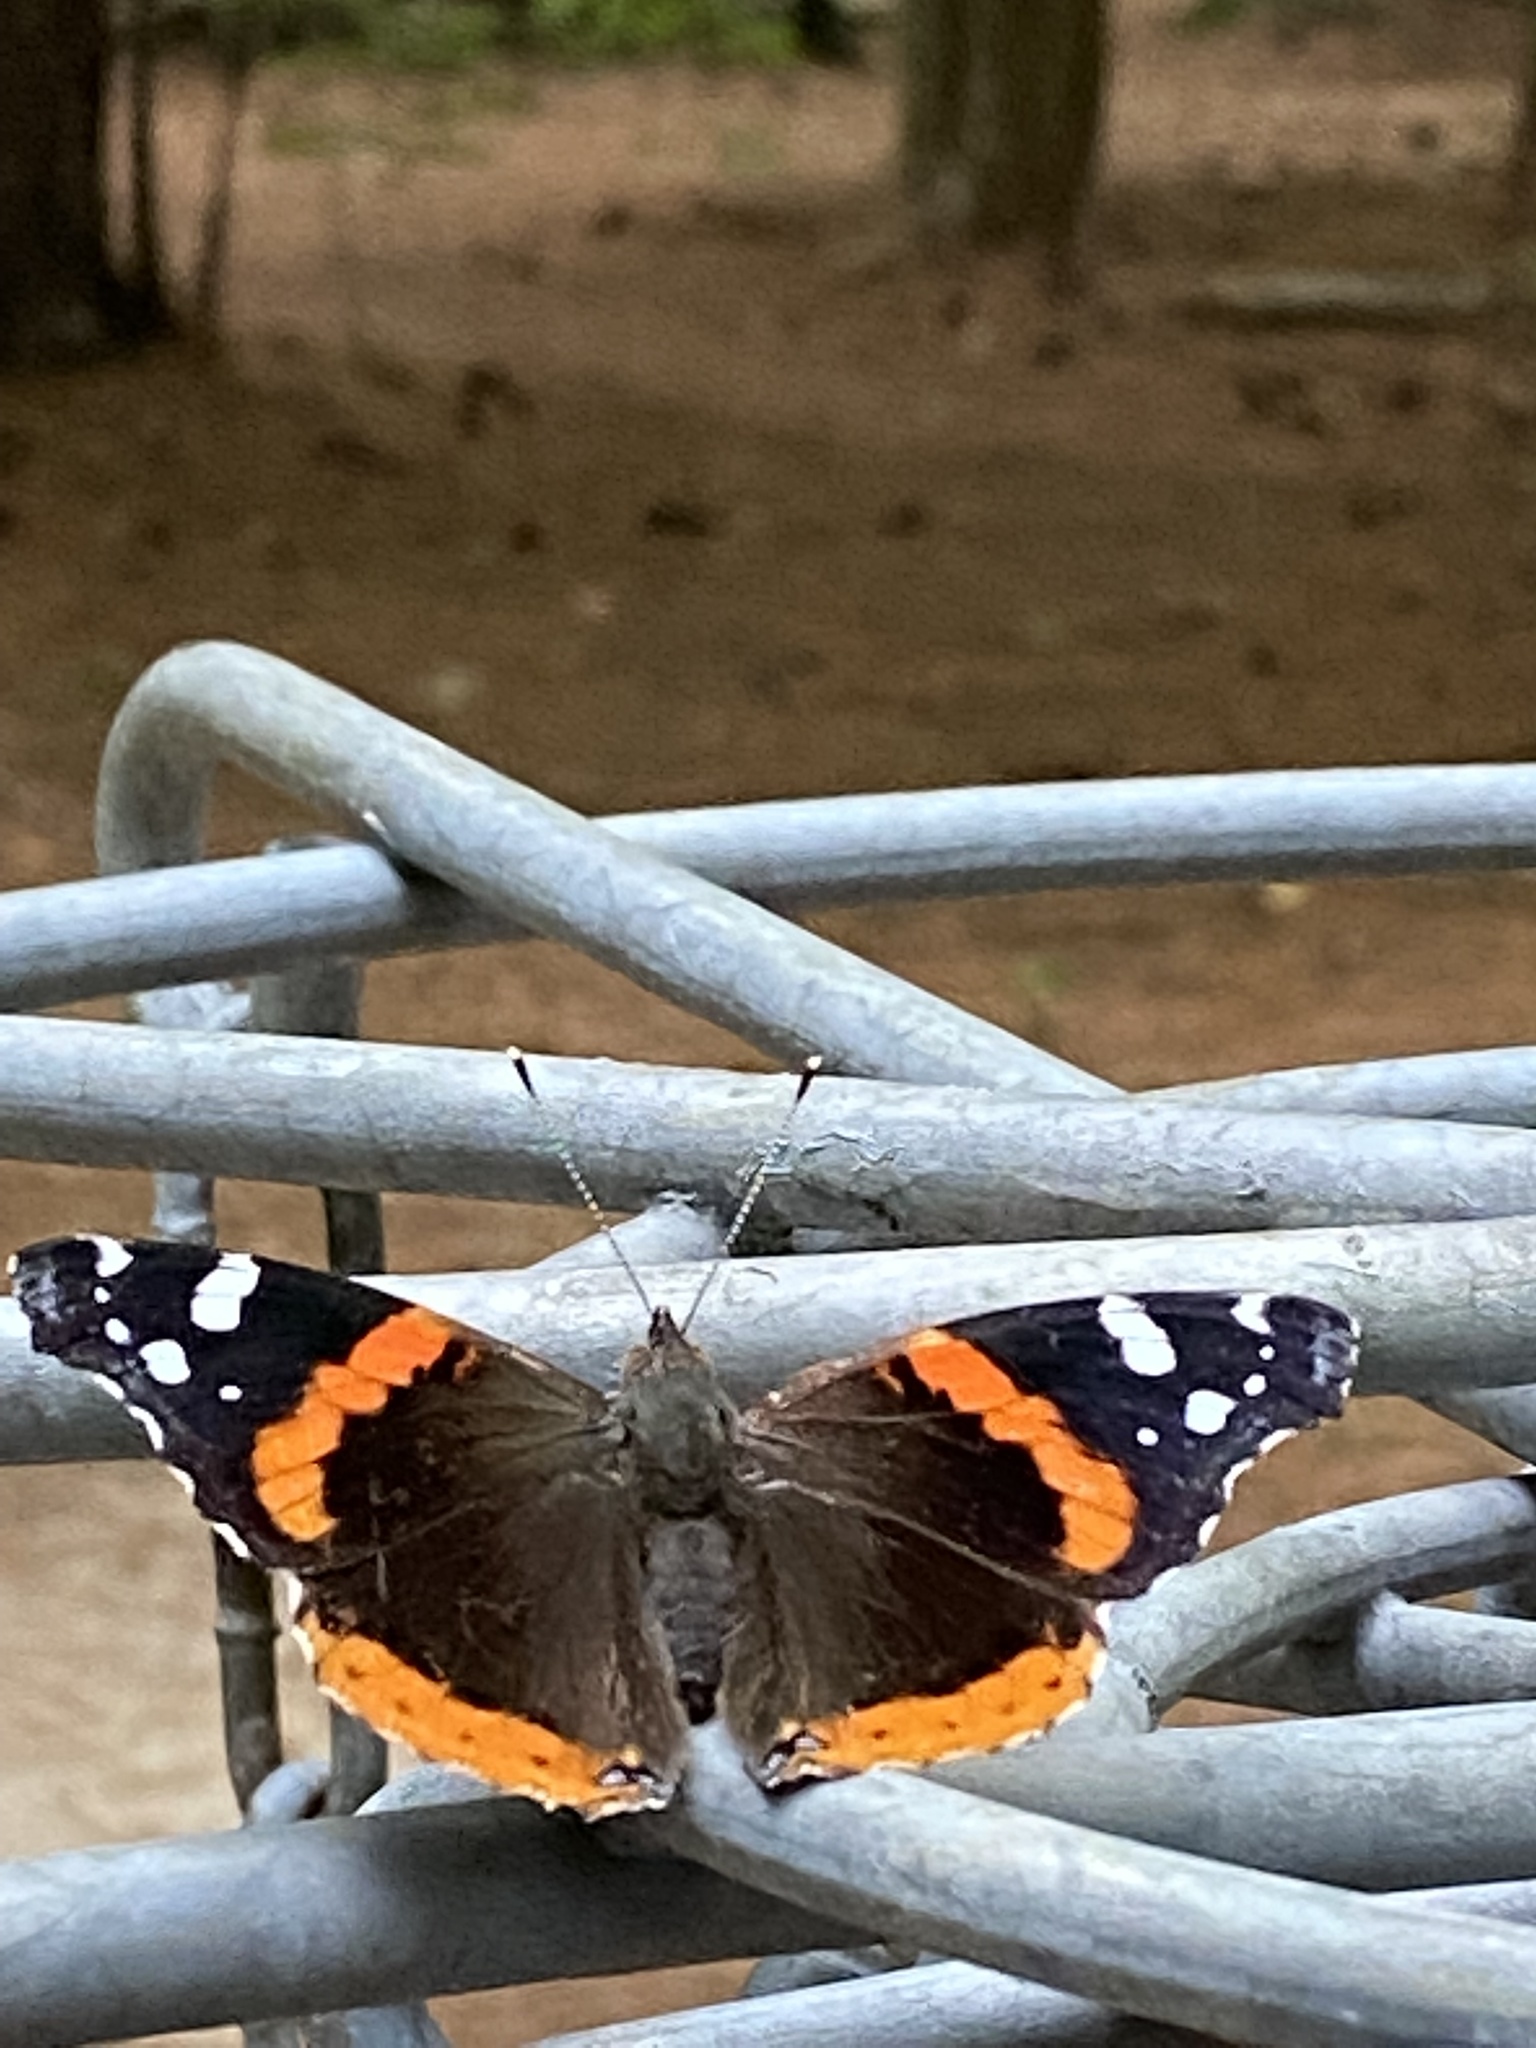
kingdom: Animalia
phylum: Arthropoda
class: Insecta
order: Lepidoptera
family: Nymphalidae
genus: Vanessa
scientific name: Vanessa atalanta
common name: Red admiral
